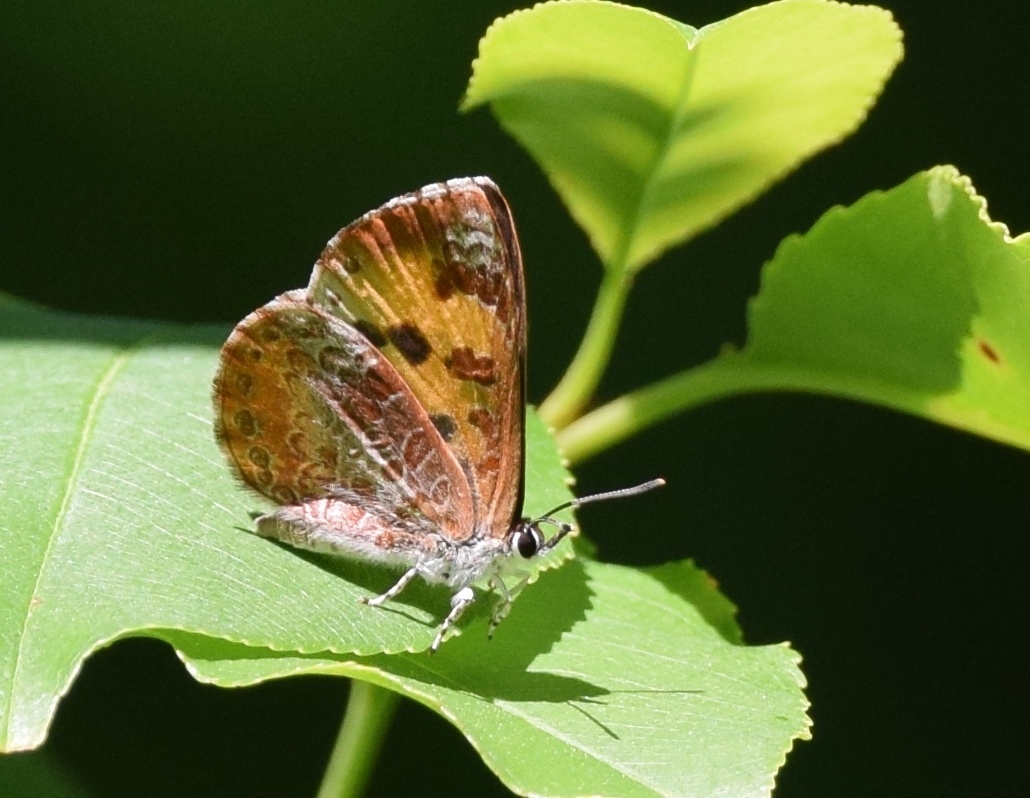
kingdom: Animalia
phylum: Arthropoda
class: Insecta
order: Lepidoptera
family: Lycaenidae
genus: Feniseca
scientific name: Feniseca tarquinius
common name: Harvester
